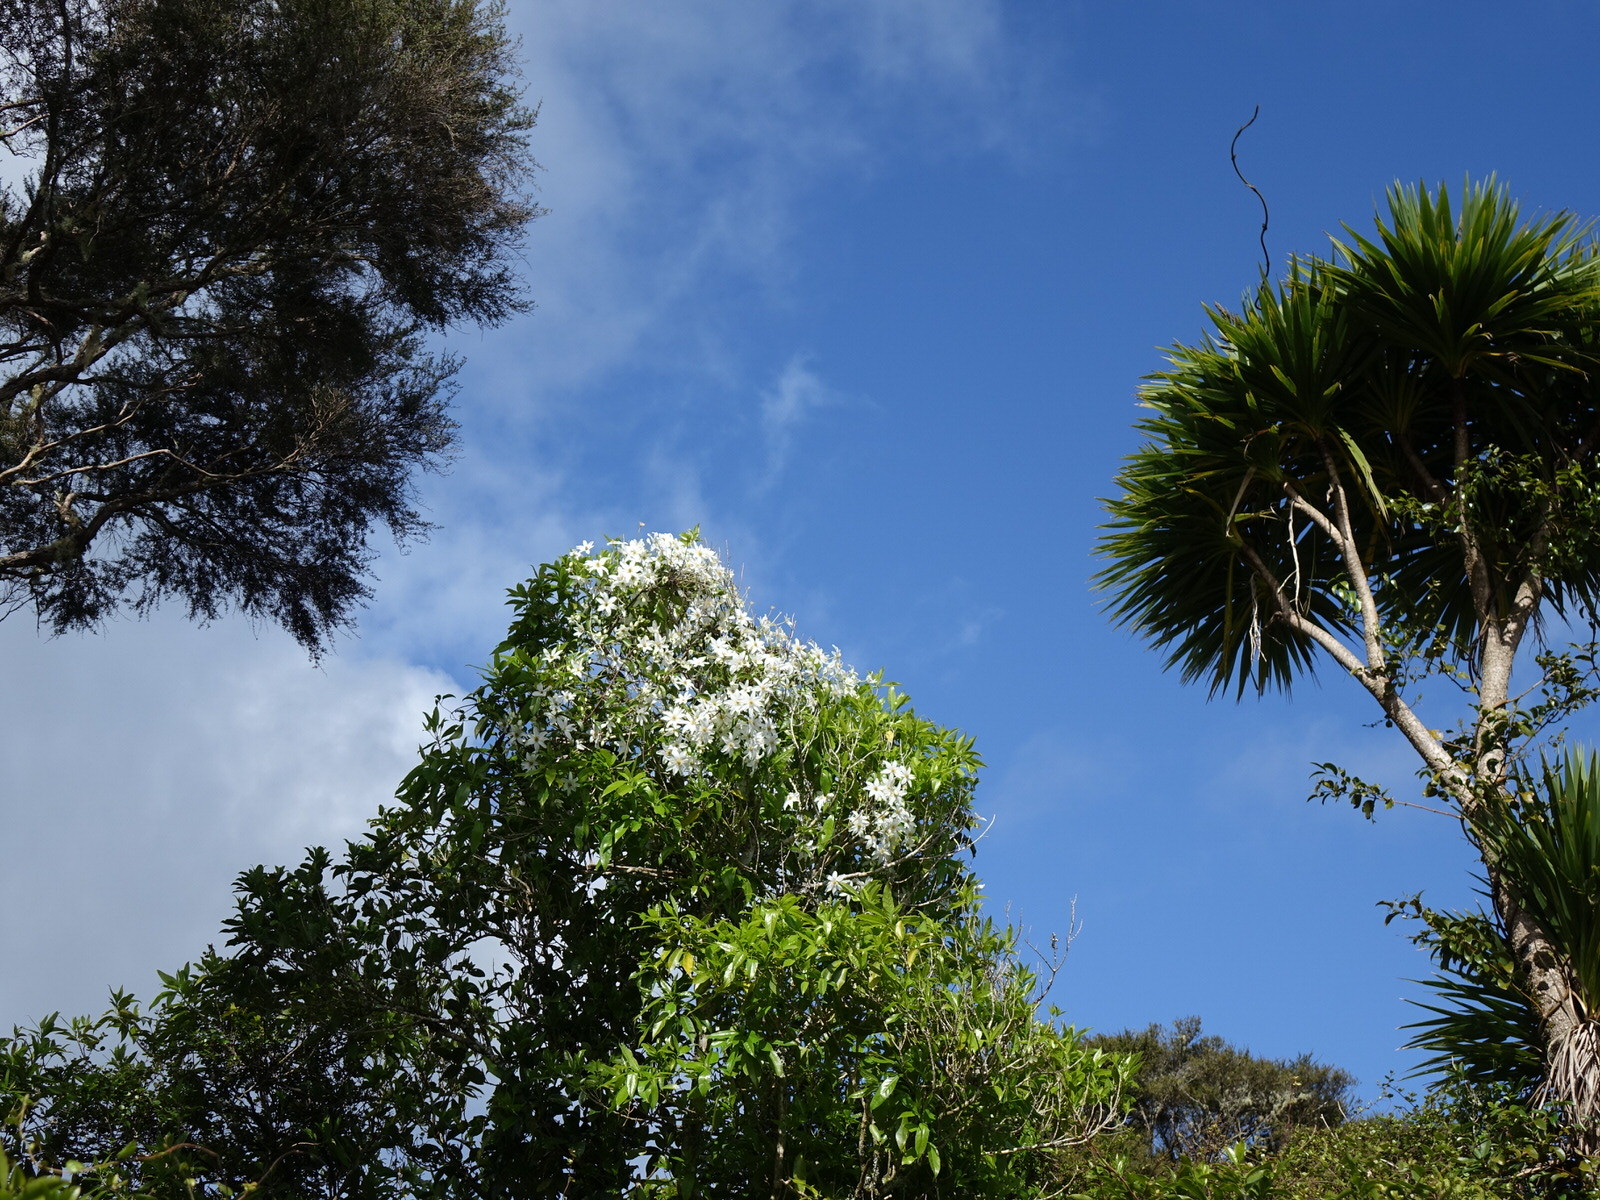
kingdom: Plantae
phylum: Tracheophyta
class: Magnoliopsida
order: Ranunculales
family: Ranunculaceae
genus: Clematis
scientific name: Clematis paniculata
